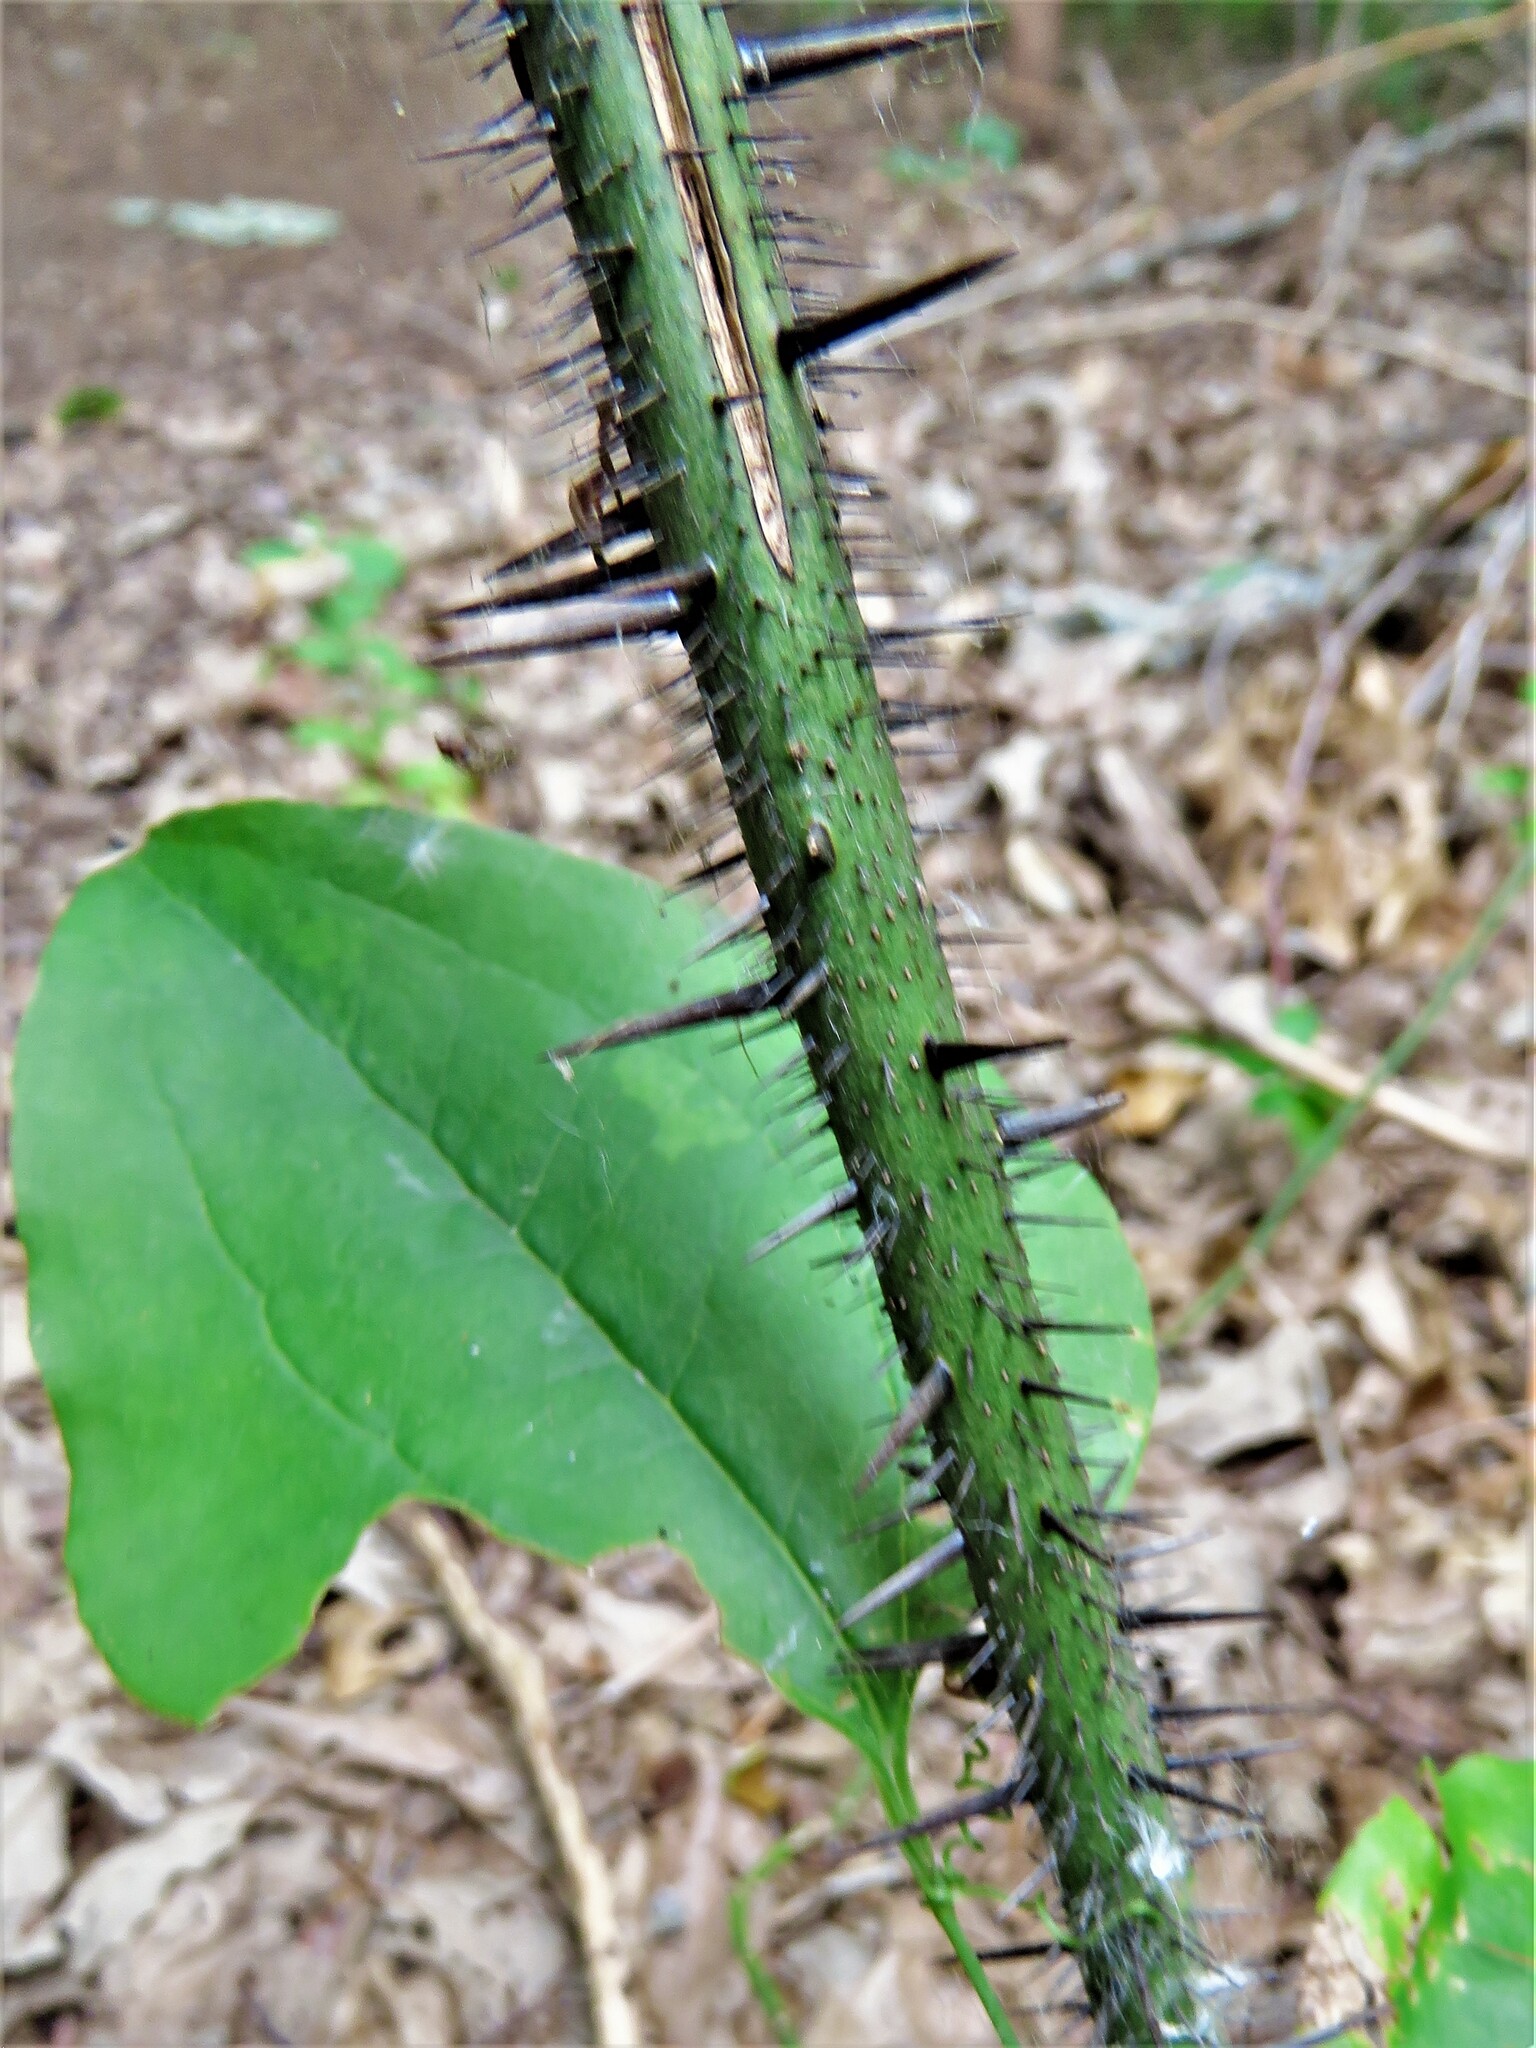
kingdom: Plantae
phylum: Tracheophyta
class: Liliopsida
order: Liliales
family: Smilacaceae
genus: Smilax
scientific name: Smilax tamnoides
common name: Hellfetter
